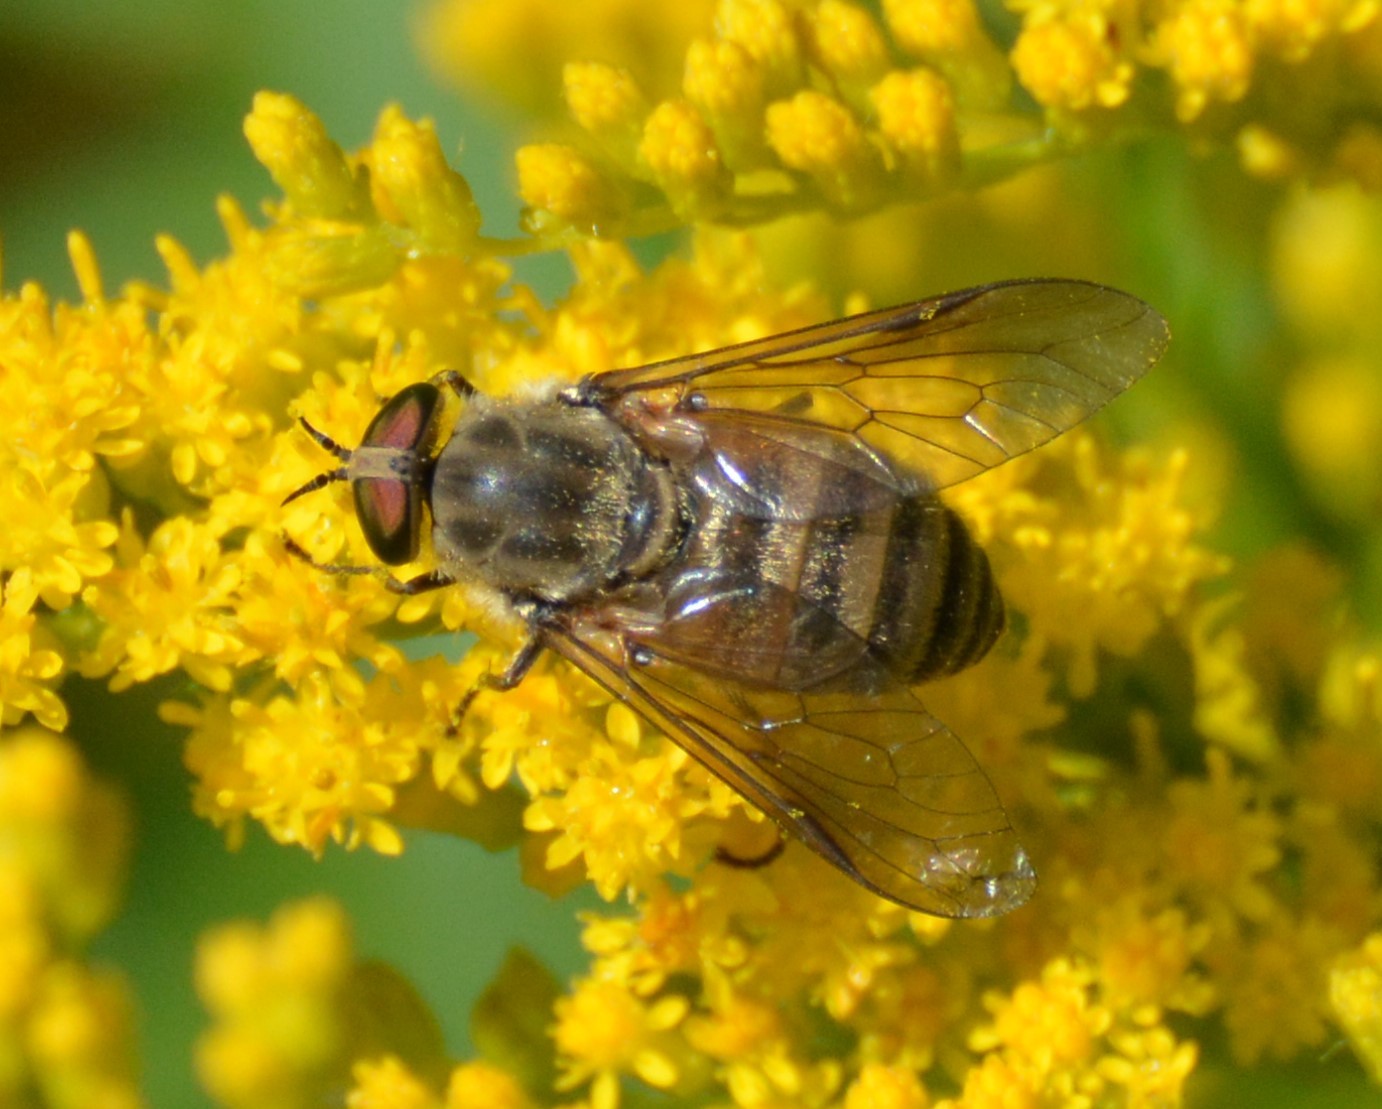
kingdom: Animalia
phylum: Arthropoda
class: Insecta
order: Diptera
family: Tabanidae
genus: Stonemyia
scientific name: Stonemyia tranquilla
